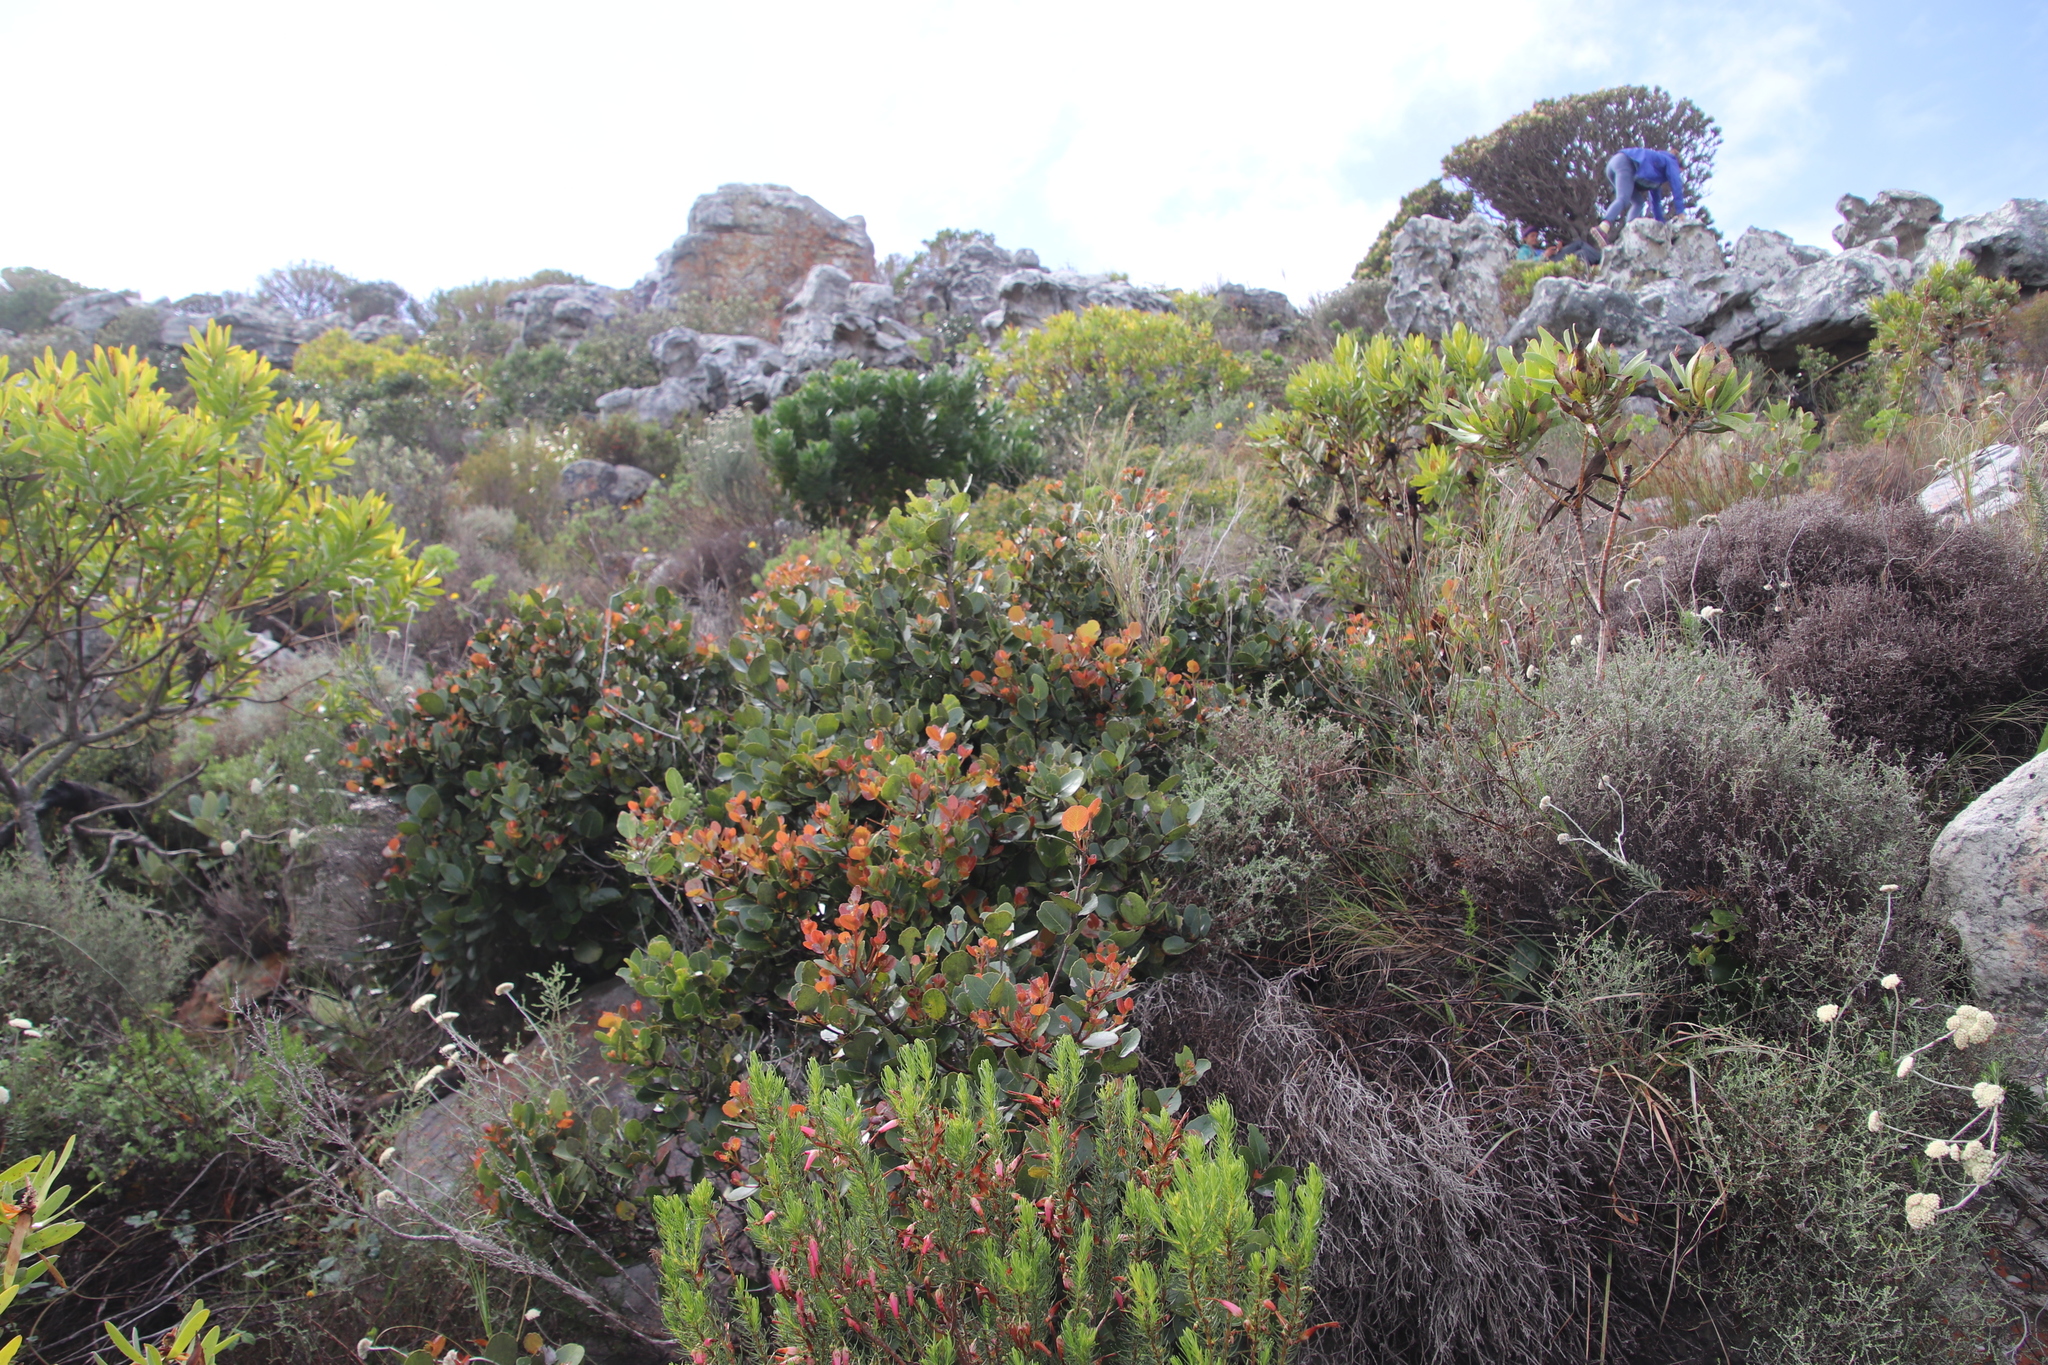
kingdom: Plantae
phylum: Tracheophyta
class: Magnoliopsida
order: Celastrales
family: Celastraceae
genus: Cassine
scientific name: Cassine peragua
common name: Cape saffron
